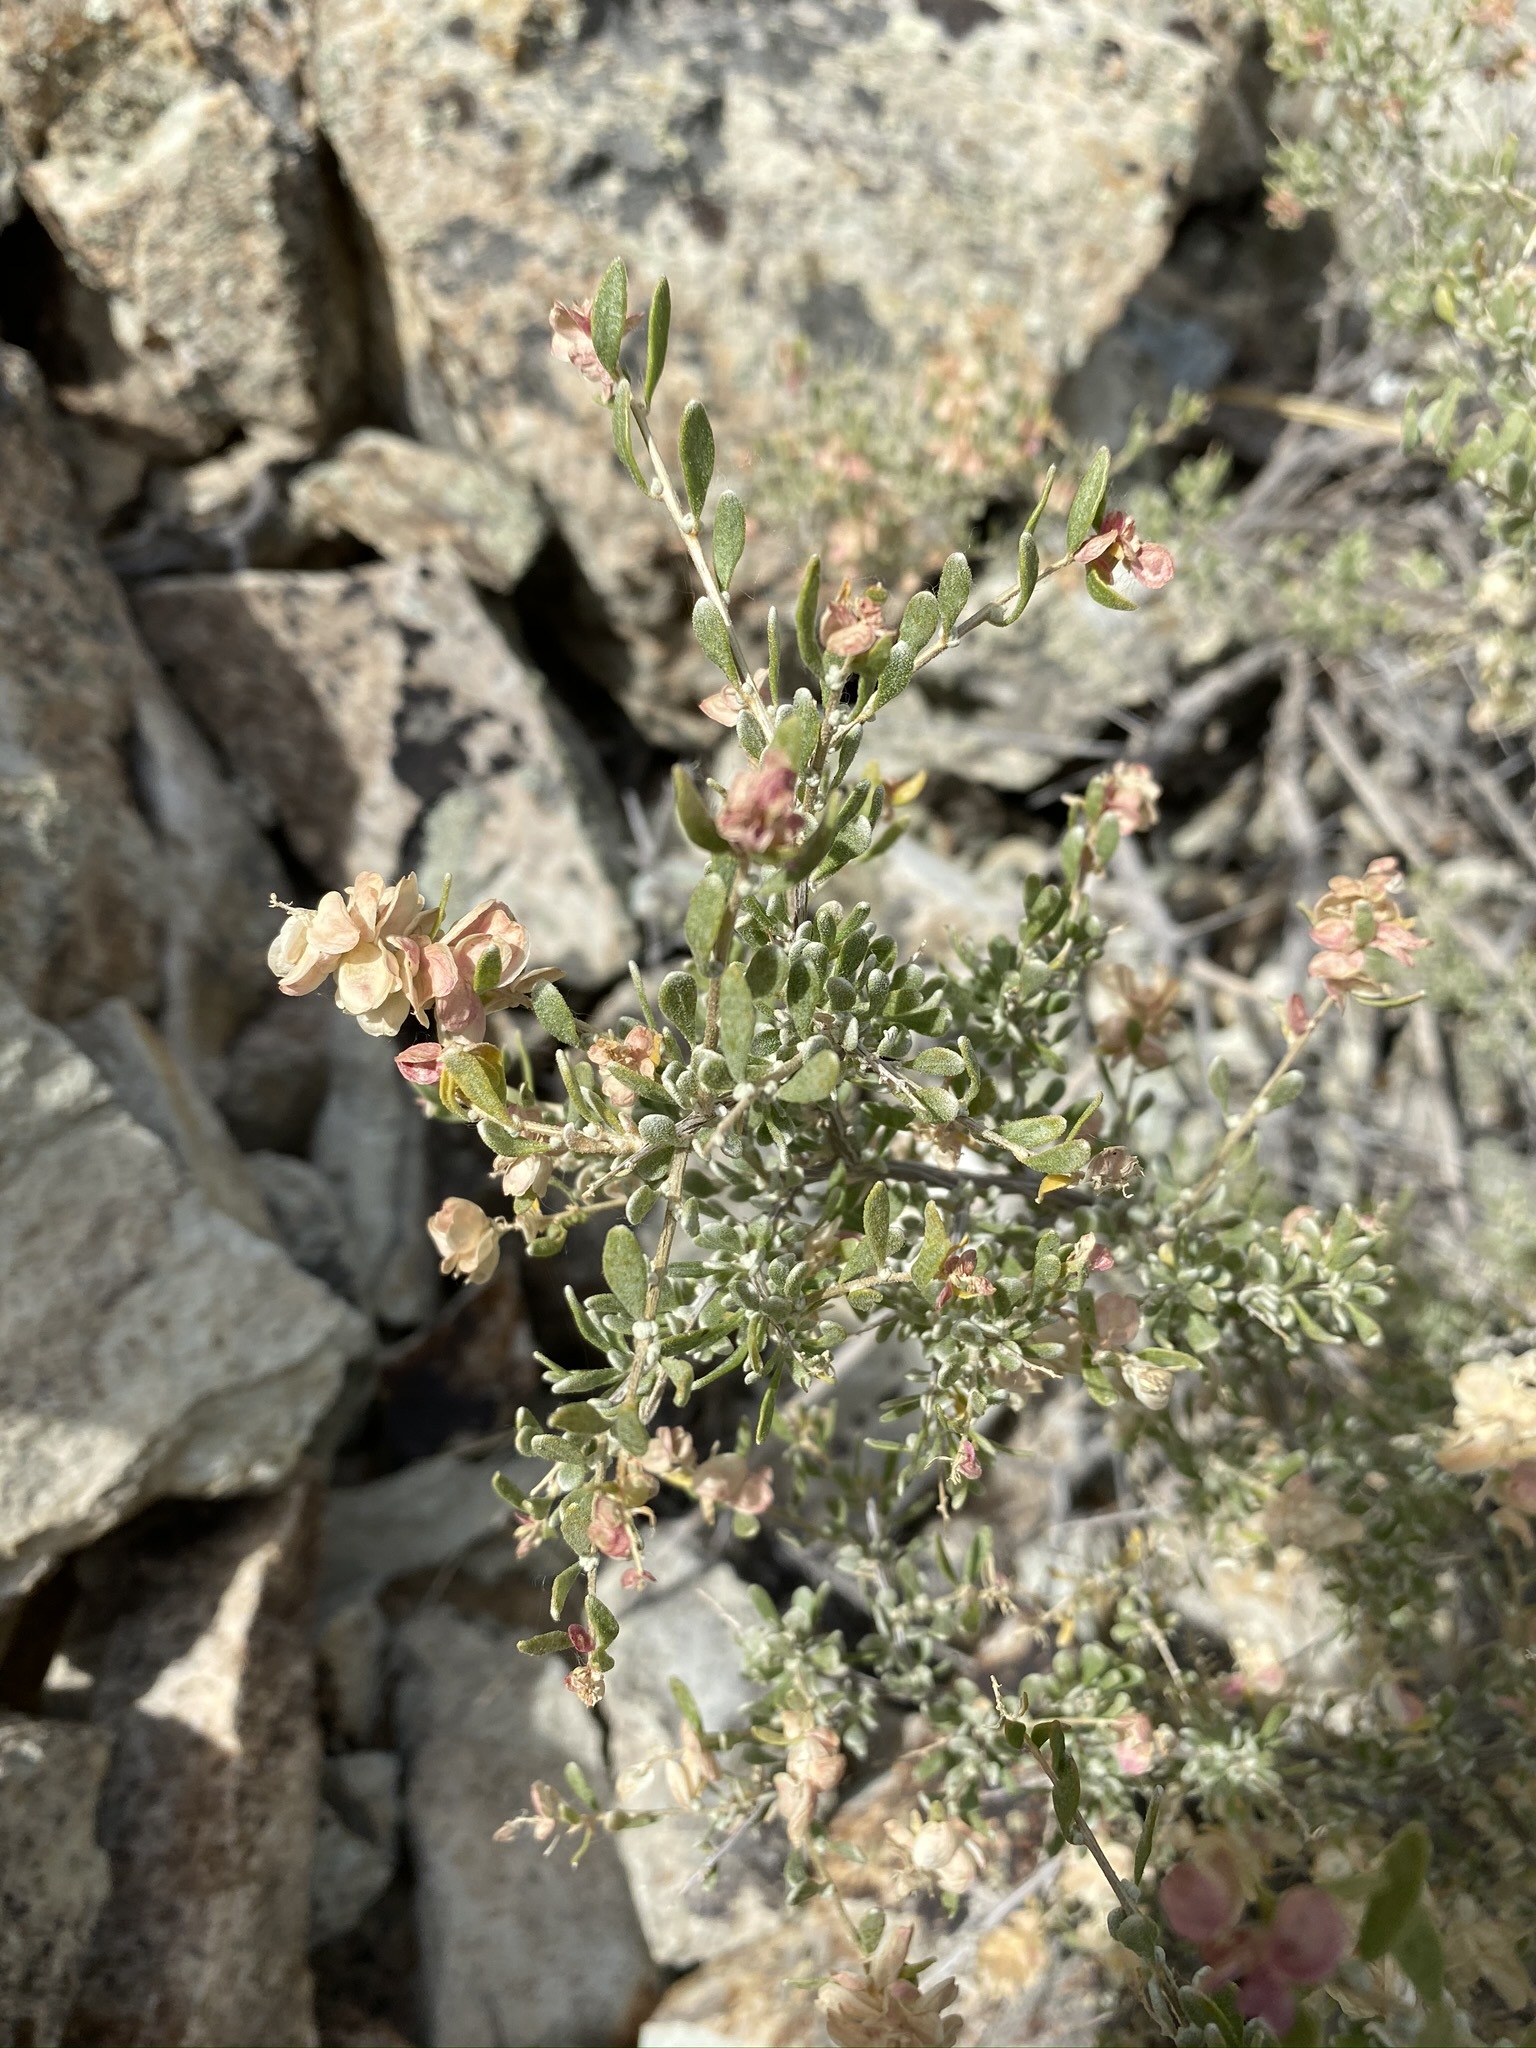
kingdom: Plantae
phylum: Tracheophyta
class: Magnoliopsida
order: Caryophyllales
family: Amaranthaceae
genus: Grayia
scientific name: Grayia spinosa
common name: Spiny hopsage
